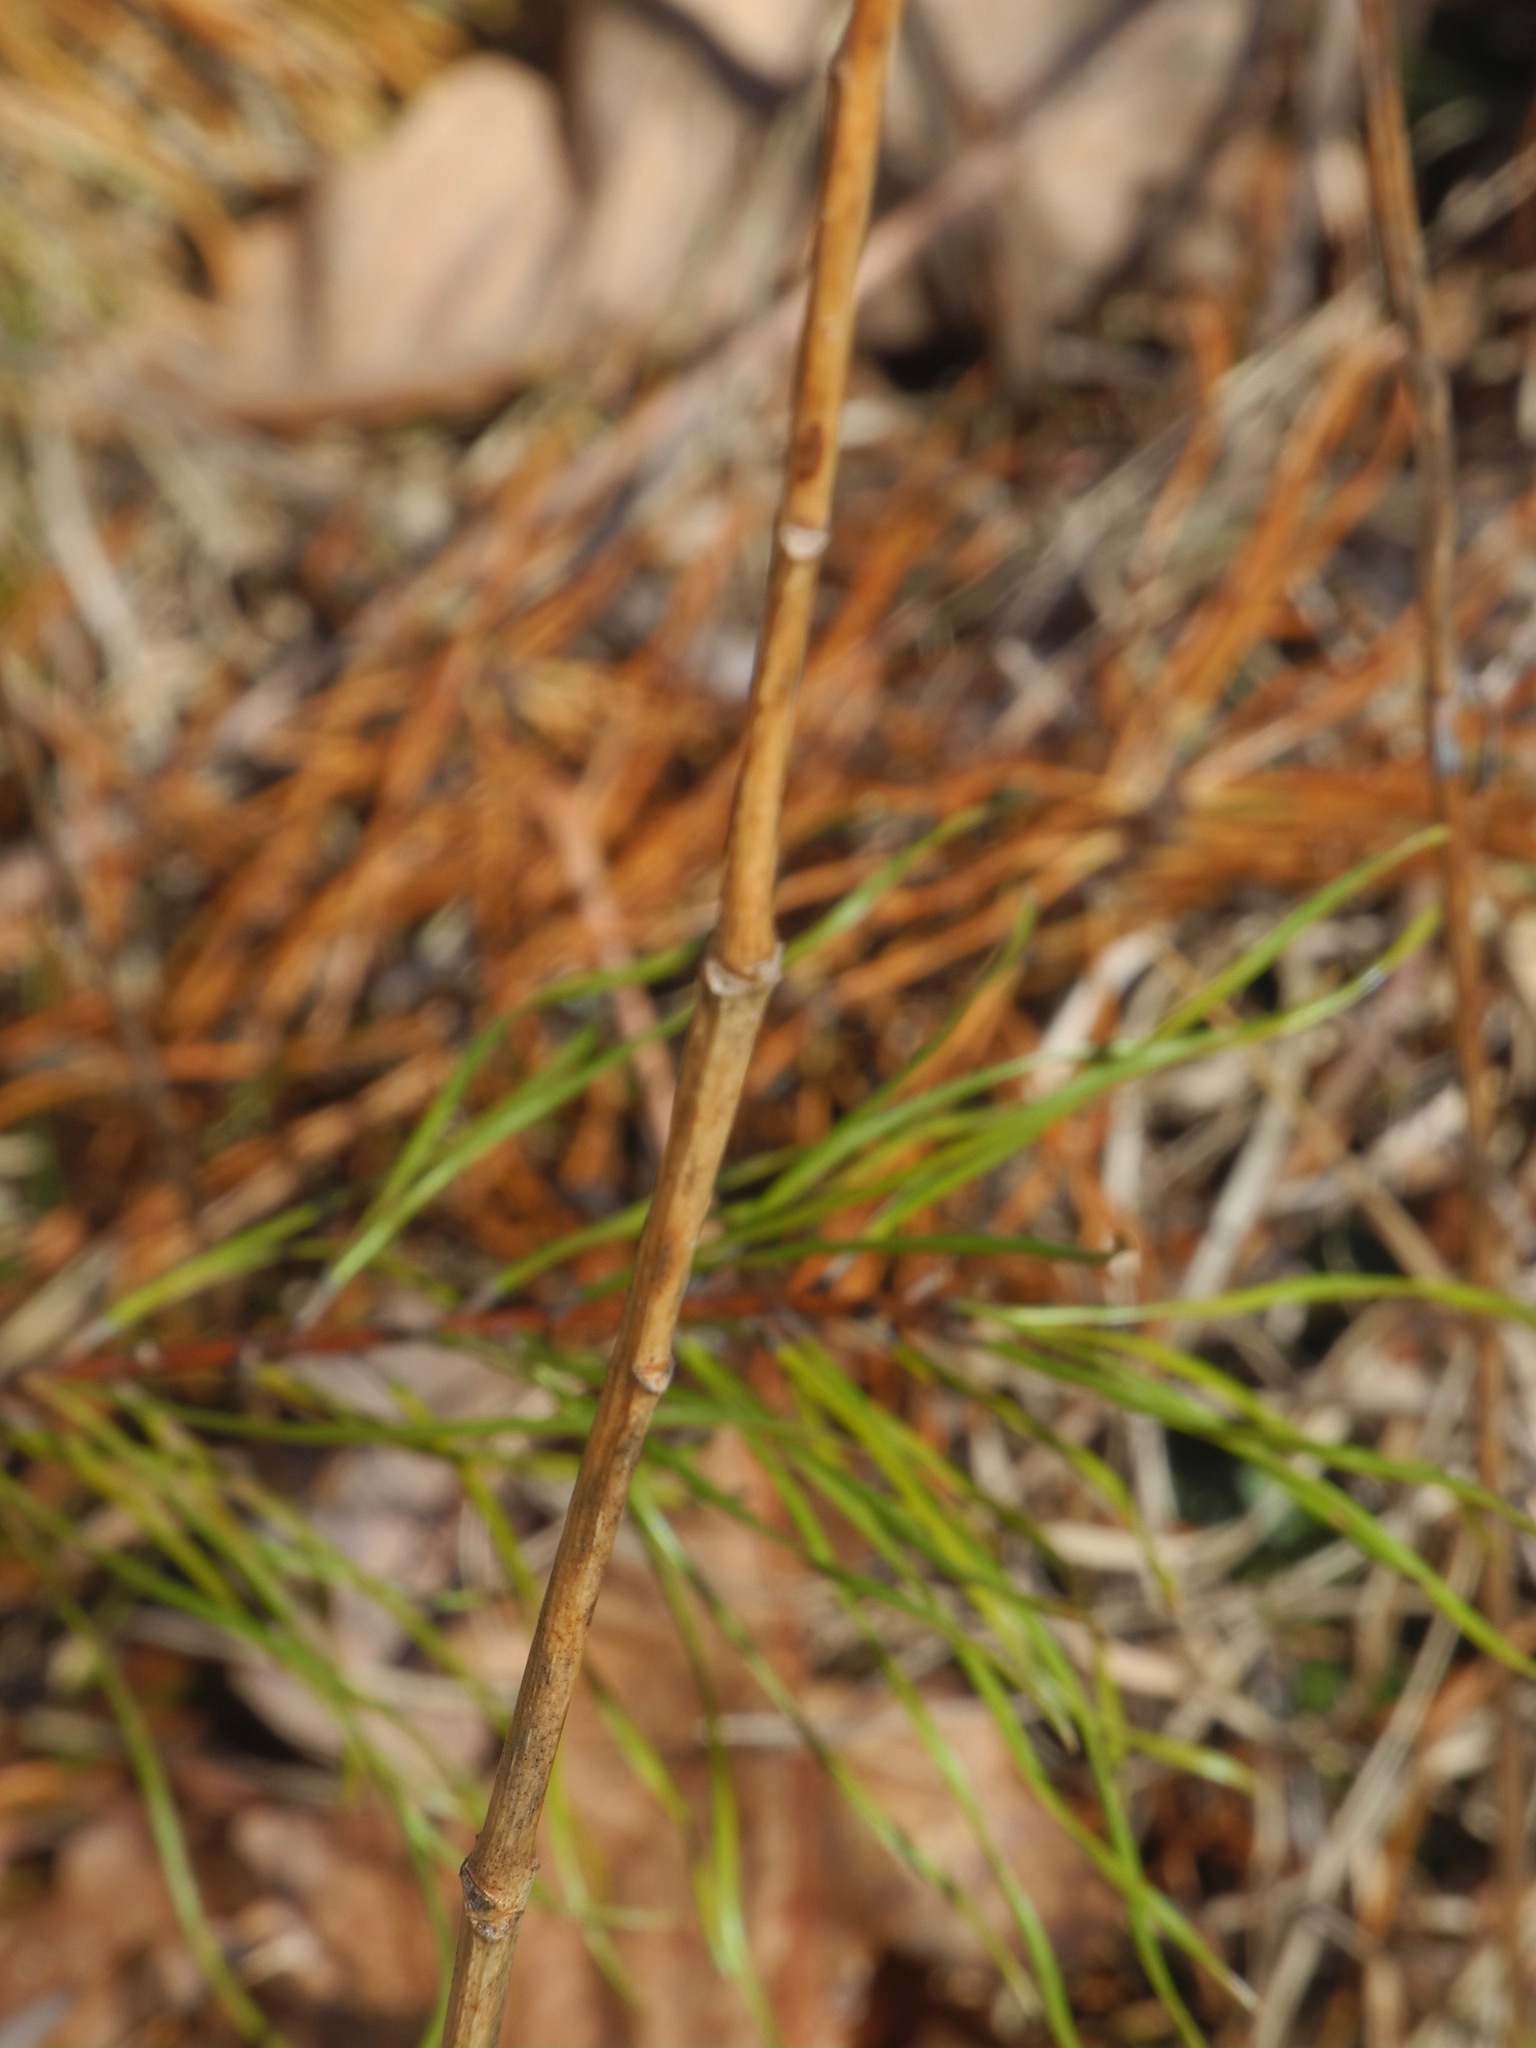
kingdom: Plantae
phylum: Tracheophyta
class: Liliopsida
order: Liliales
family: Liliaceae
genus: Lilium
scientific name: Lilium michauxii
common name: Carolina lily
